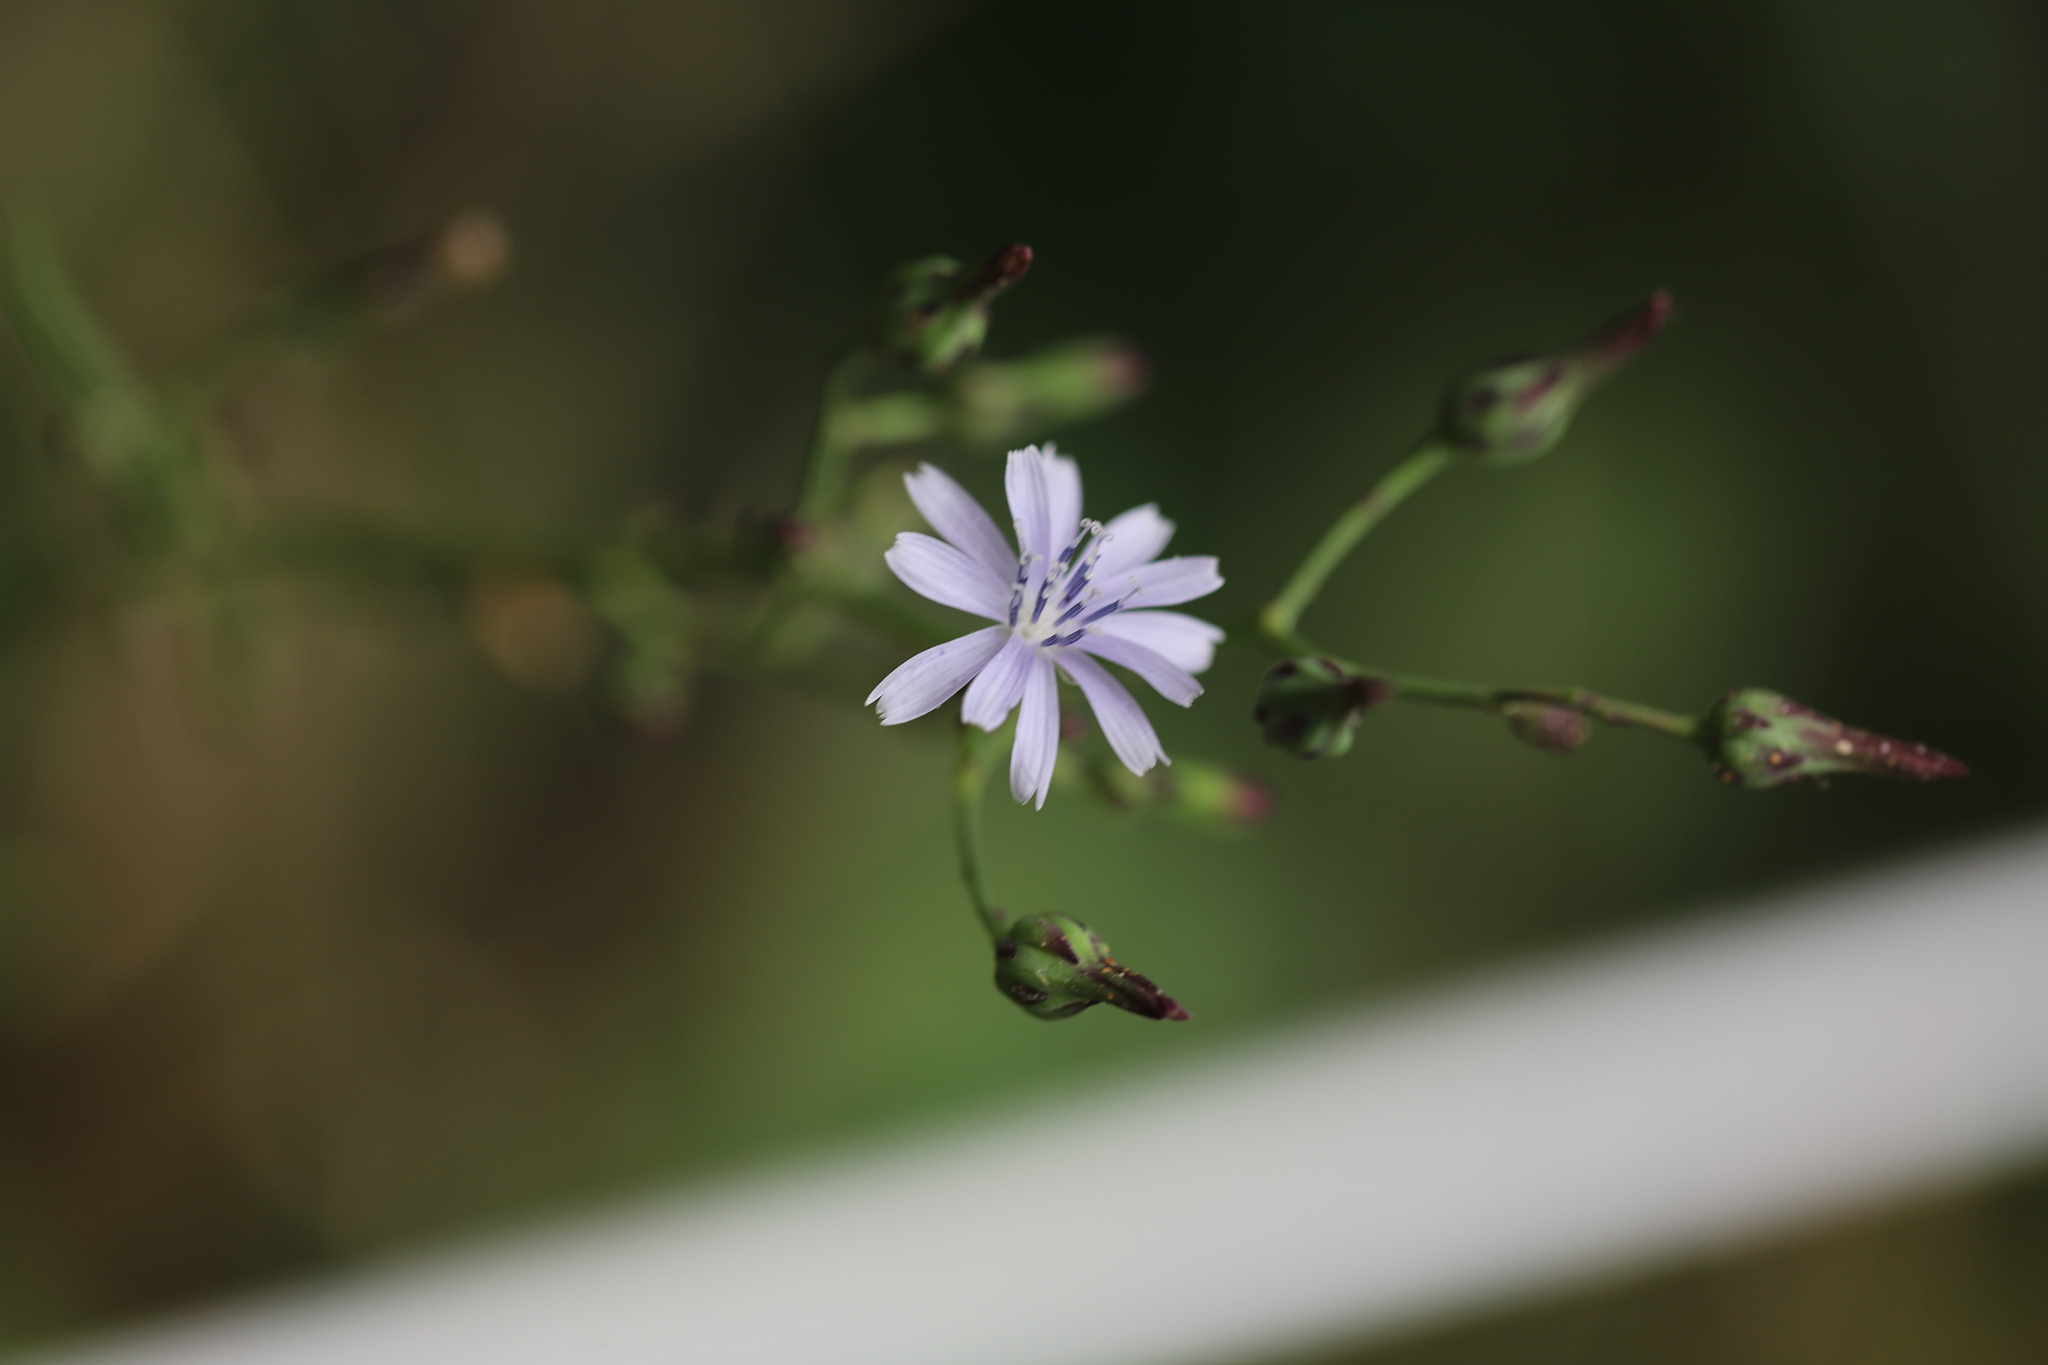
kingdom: Plantae
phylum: Tracheophyta
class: Magnoliopsida
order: Asterales
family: Asteraceae
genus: Lactuca
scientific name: Lactuca floridana
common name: Woodland lettuce
